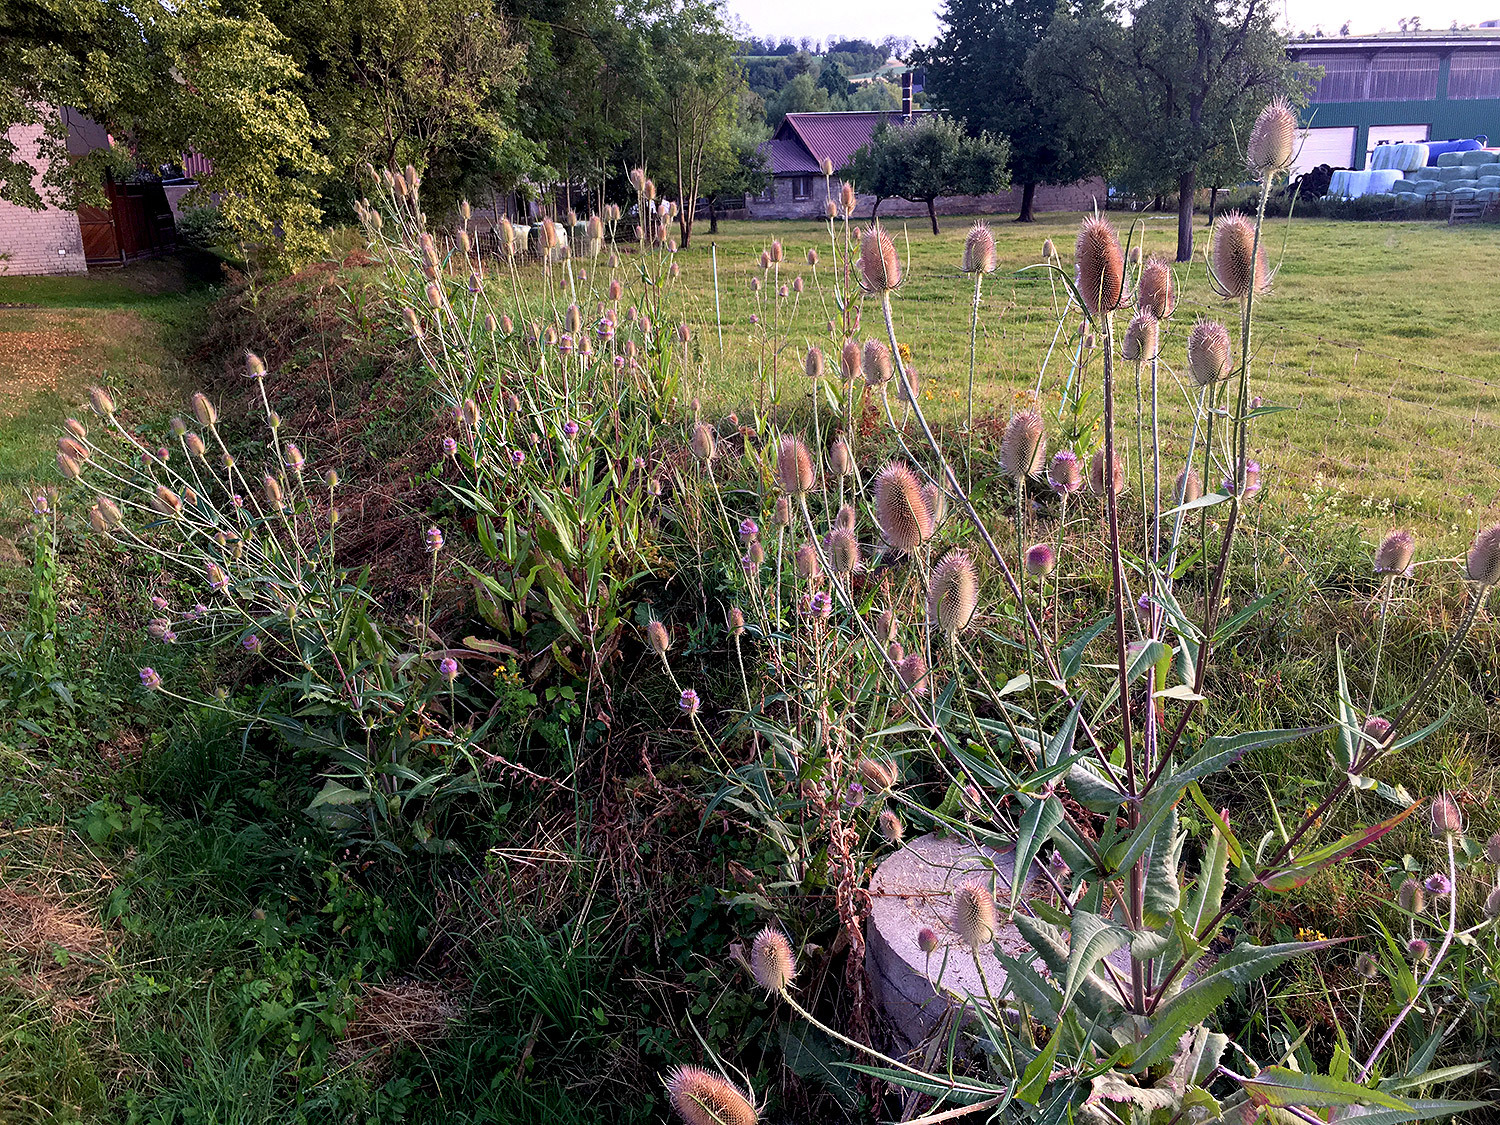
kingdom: Plantae
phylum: Tracheophyta
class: Magnoliopsida
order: Dipsacales
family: Caprifoliaceae
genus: Dipsacus
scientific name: Dipsacus fullonum
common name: Teasel
